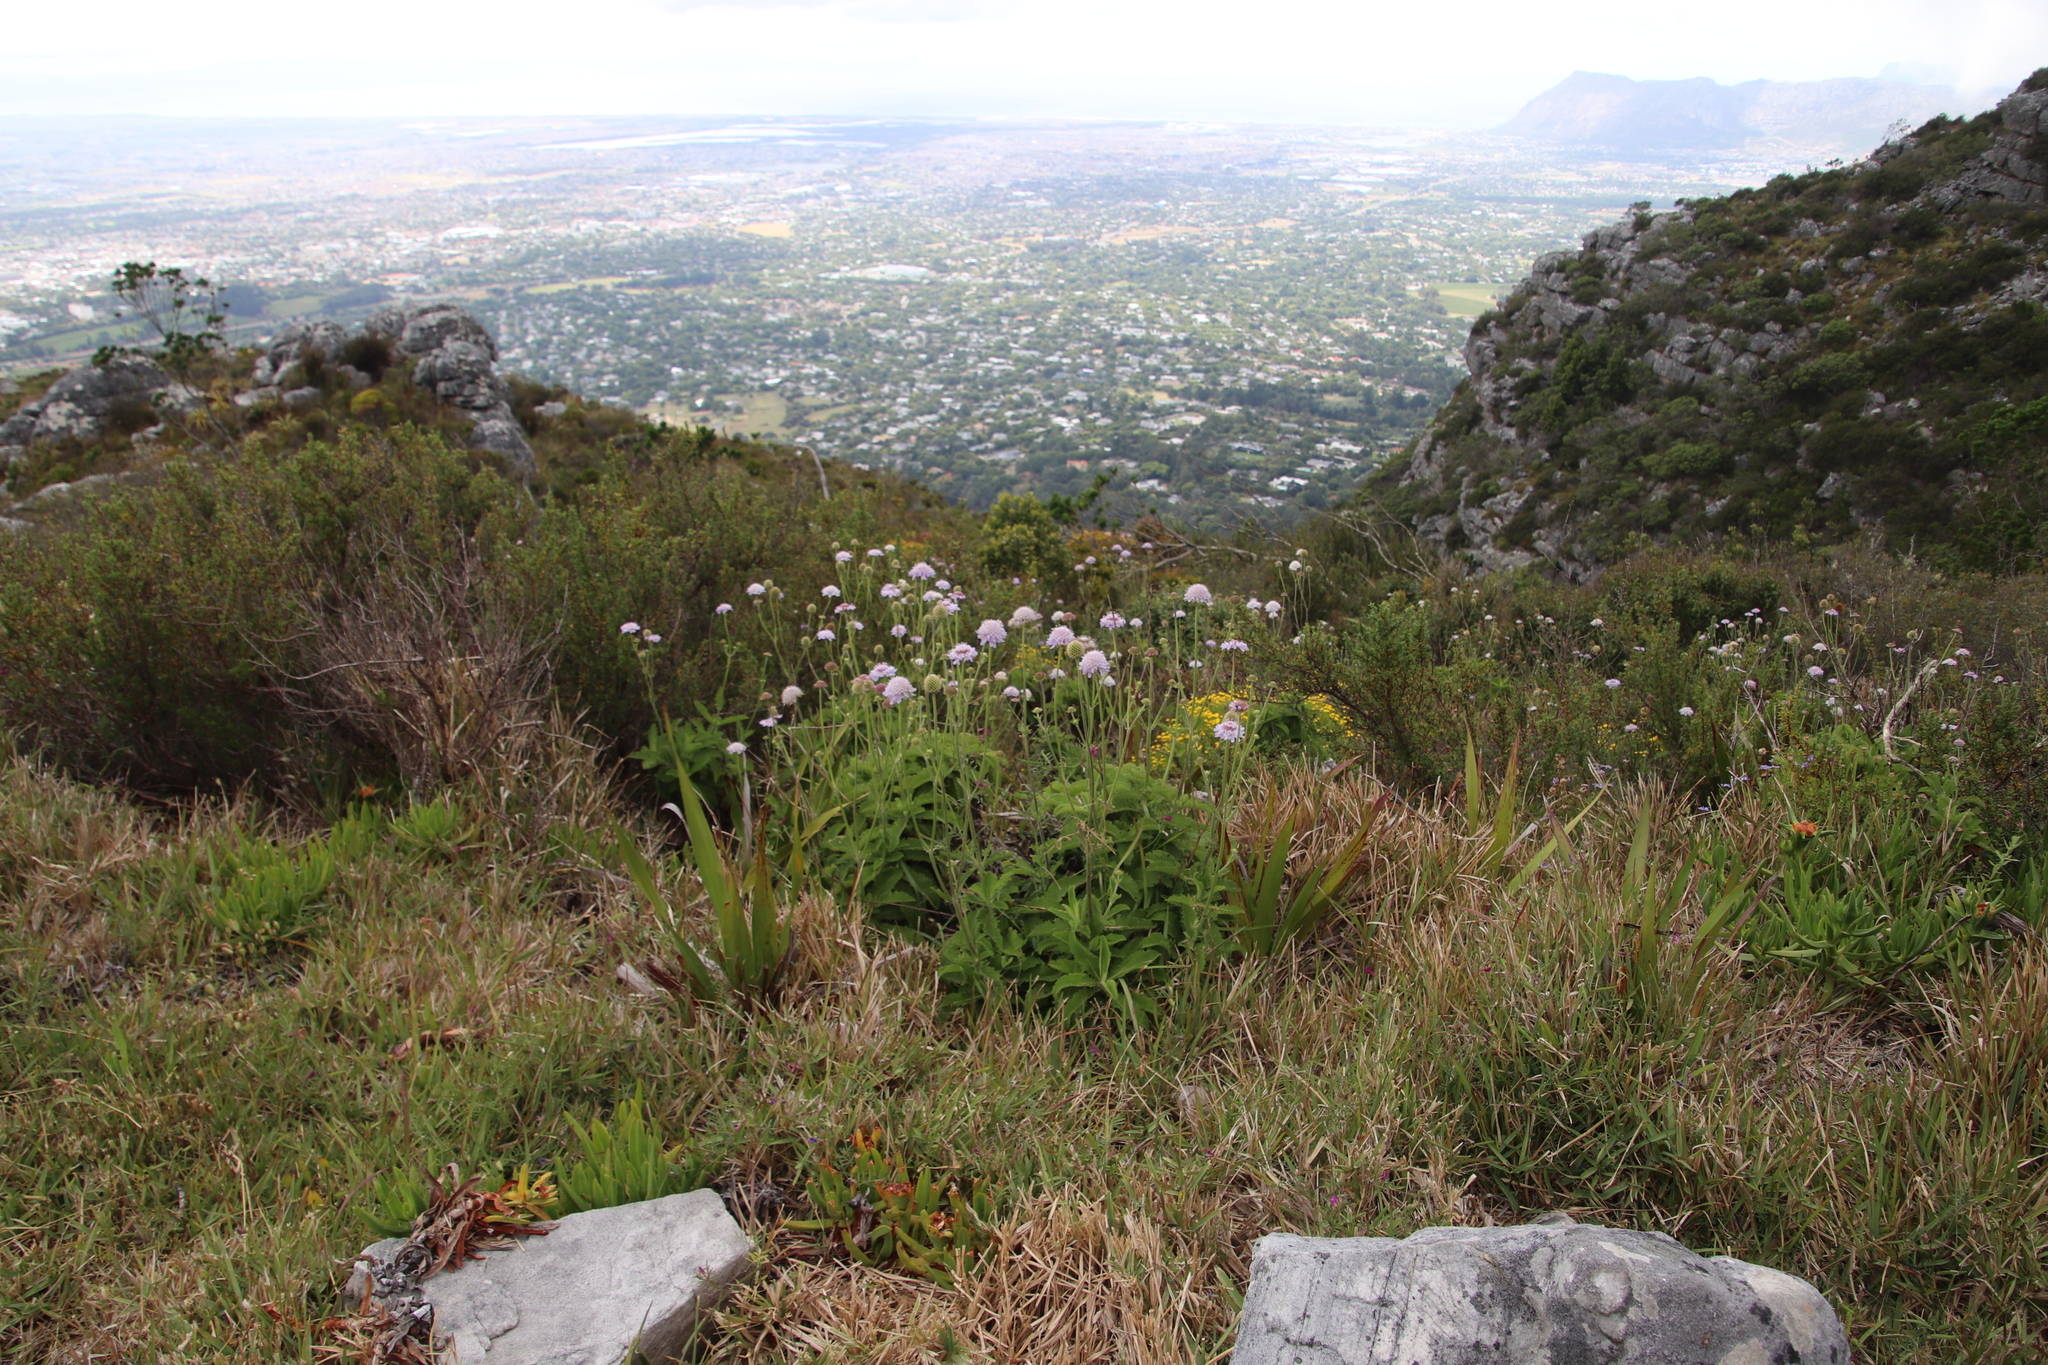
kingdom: Plantae
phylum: Tracheophyta
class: Magnoliopsida
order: Dipsacales
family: Caprifoliaceae
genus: Scabiosa
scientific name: Scabiosa africana
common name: Cape scabious
